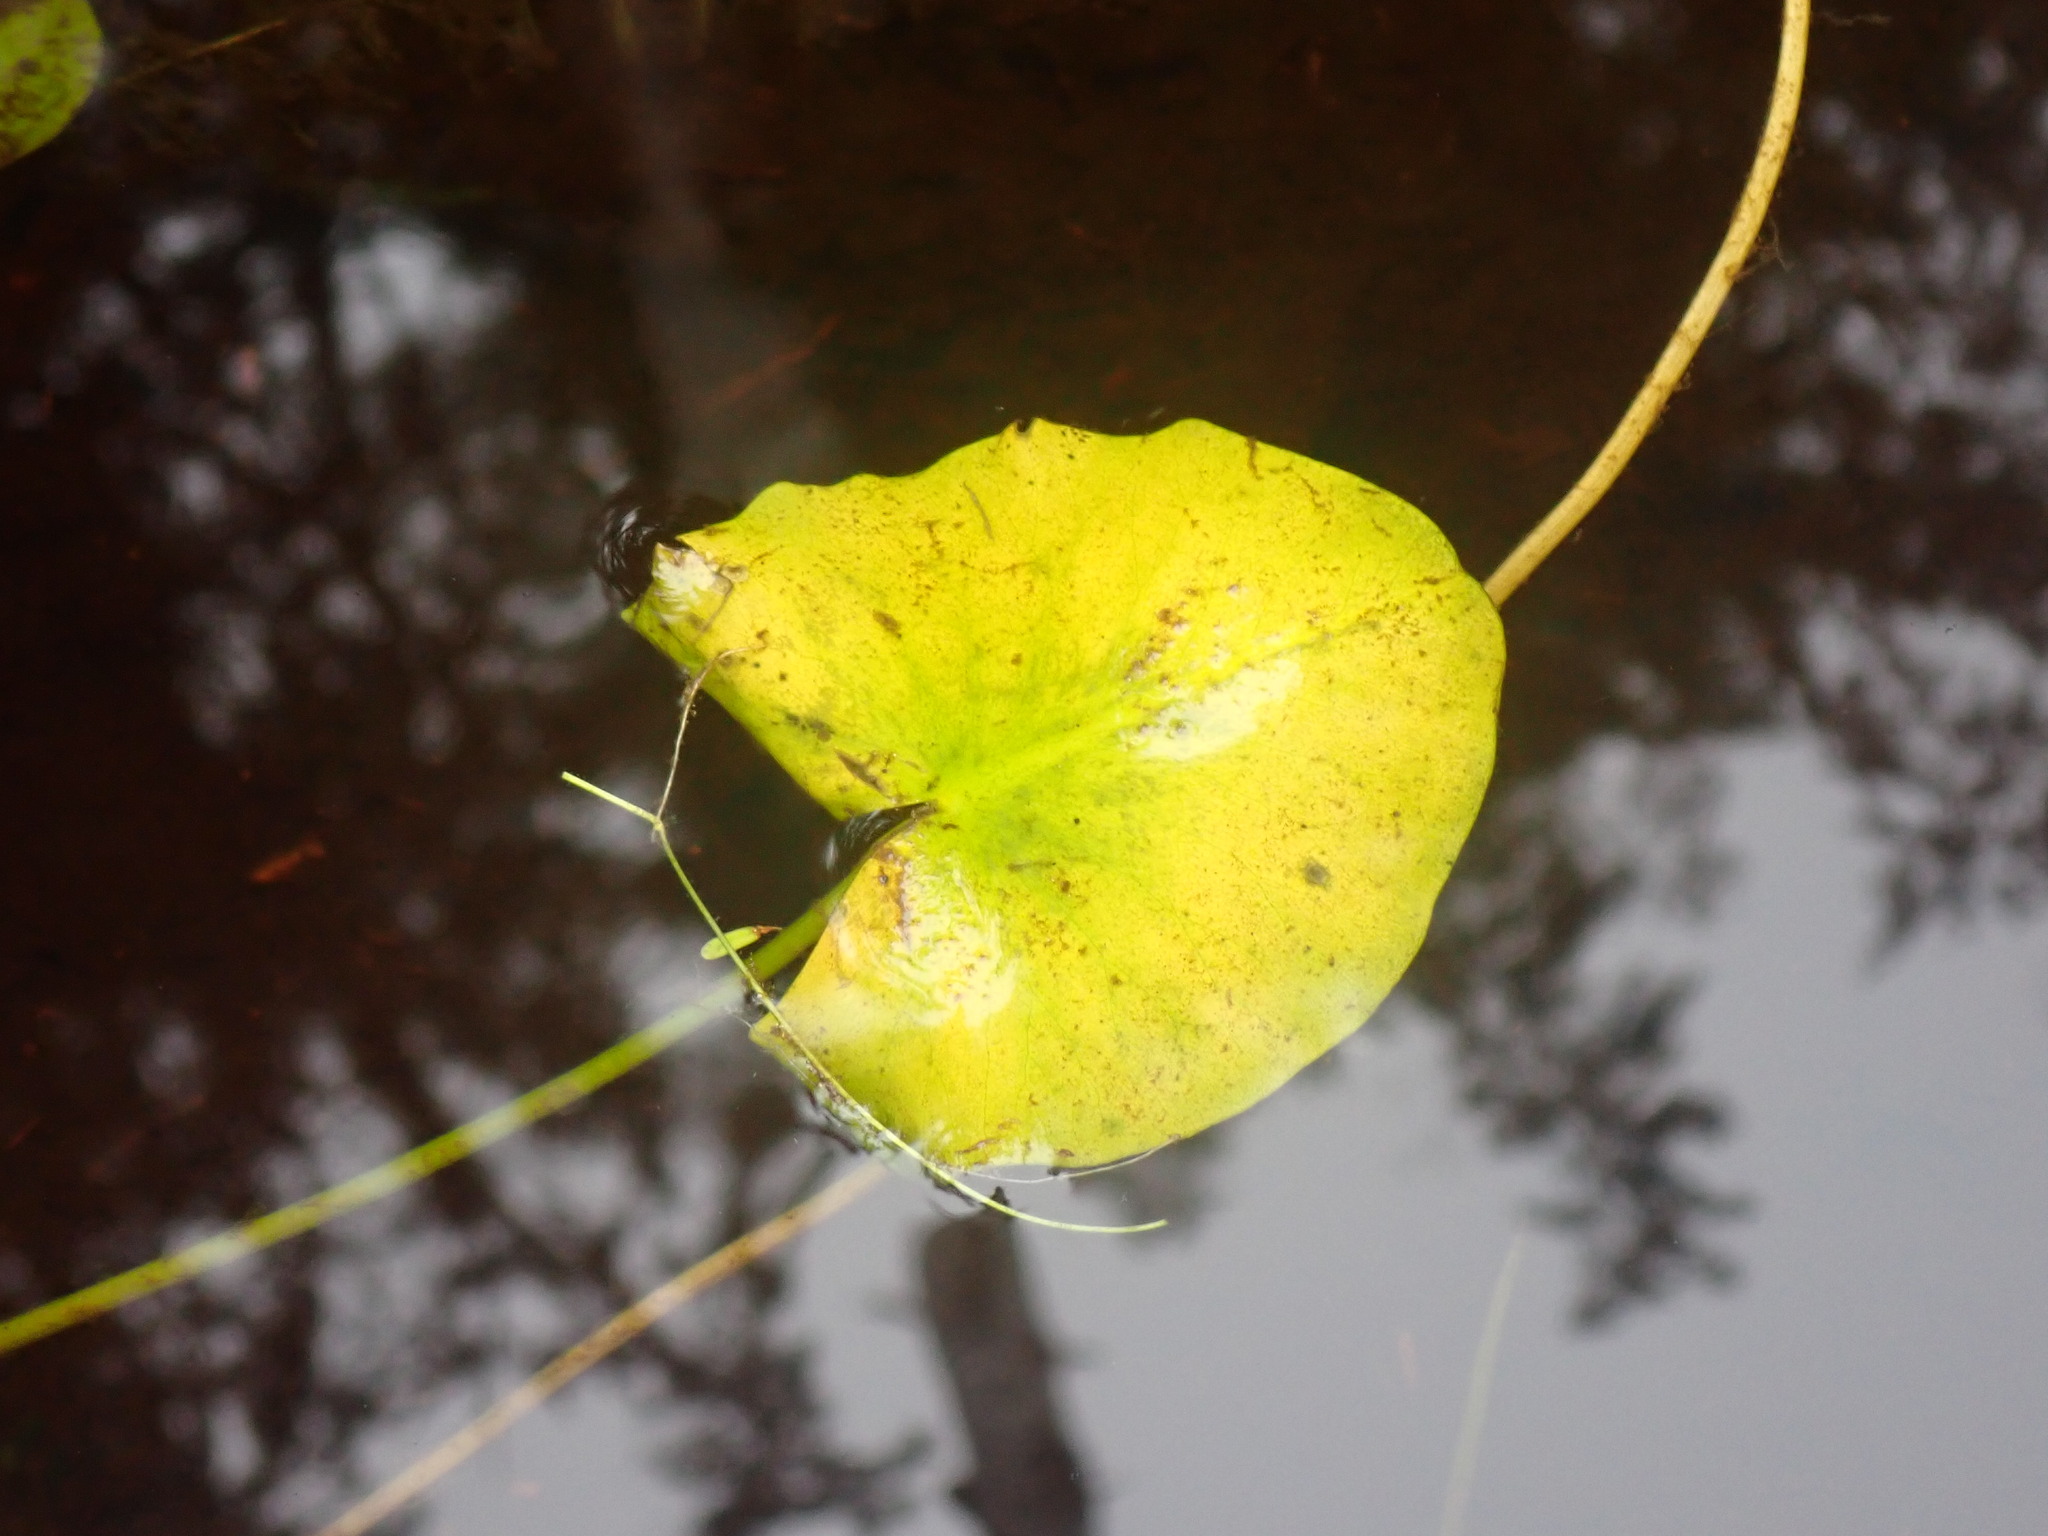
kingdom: Plantae
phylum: Tracheophyta
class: Magnoliopsida
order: Nymphaeales
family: Nymphaeaceae
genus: Nuphar
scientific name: Nuphar polysepala
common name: Rocky mountain cow-lily
